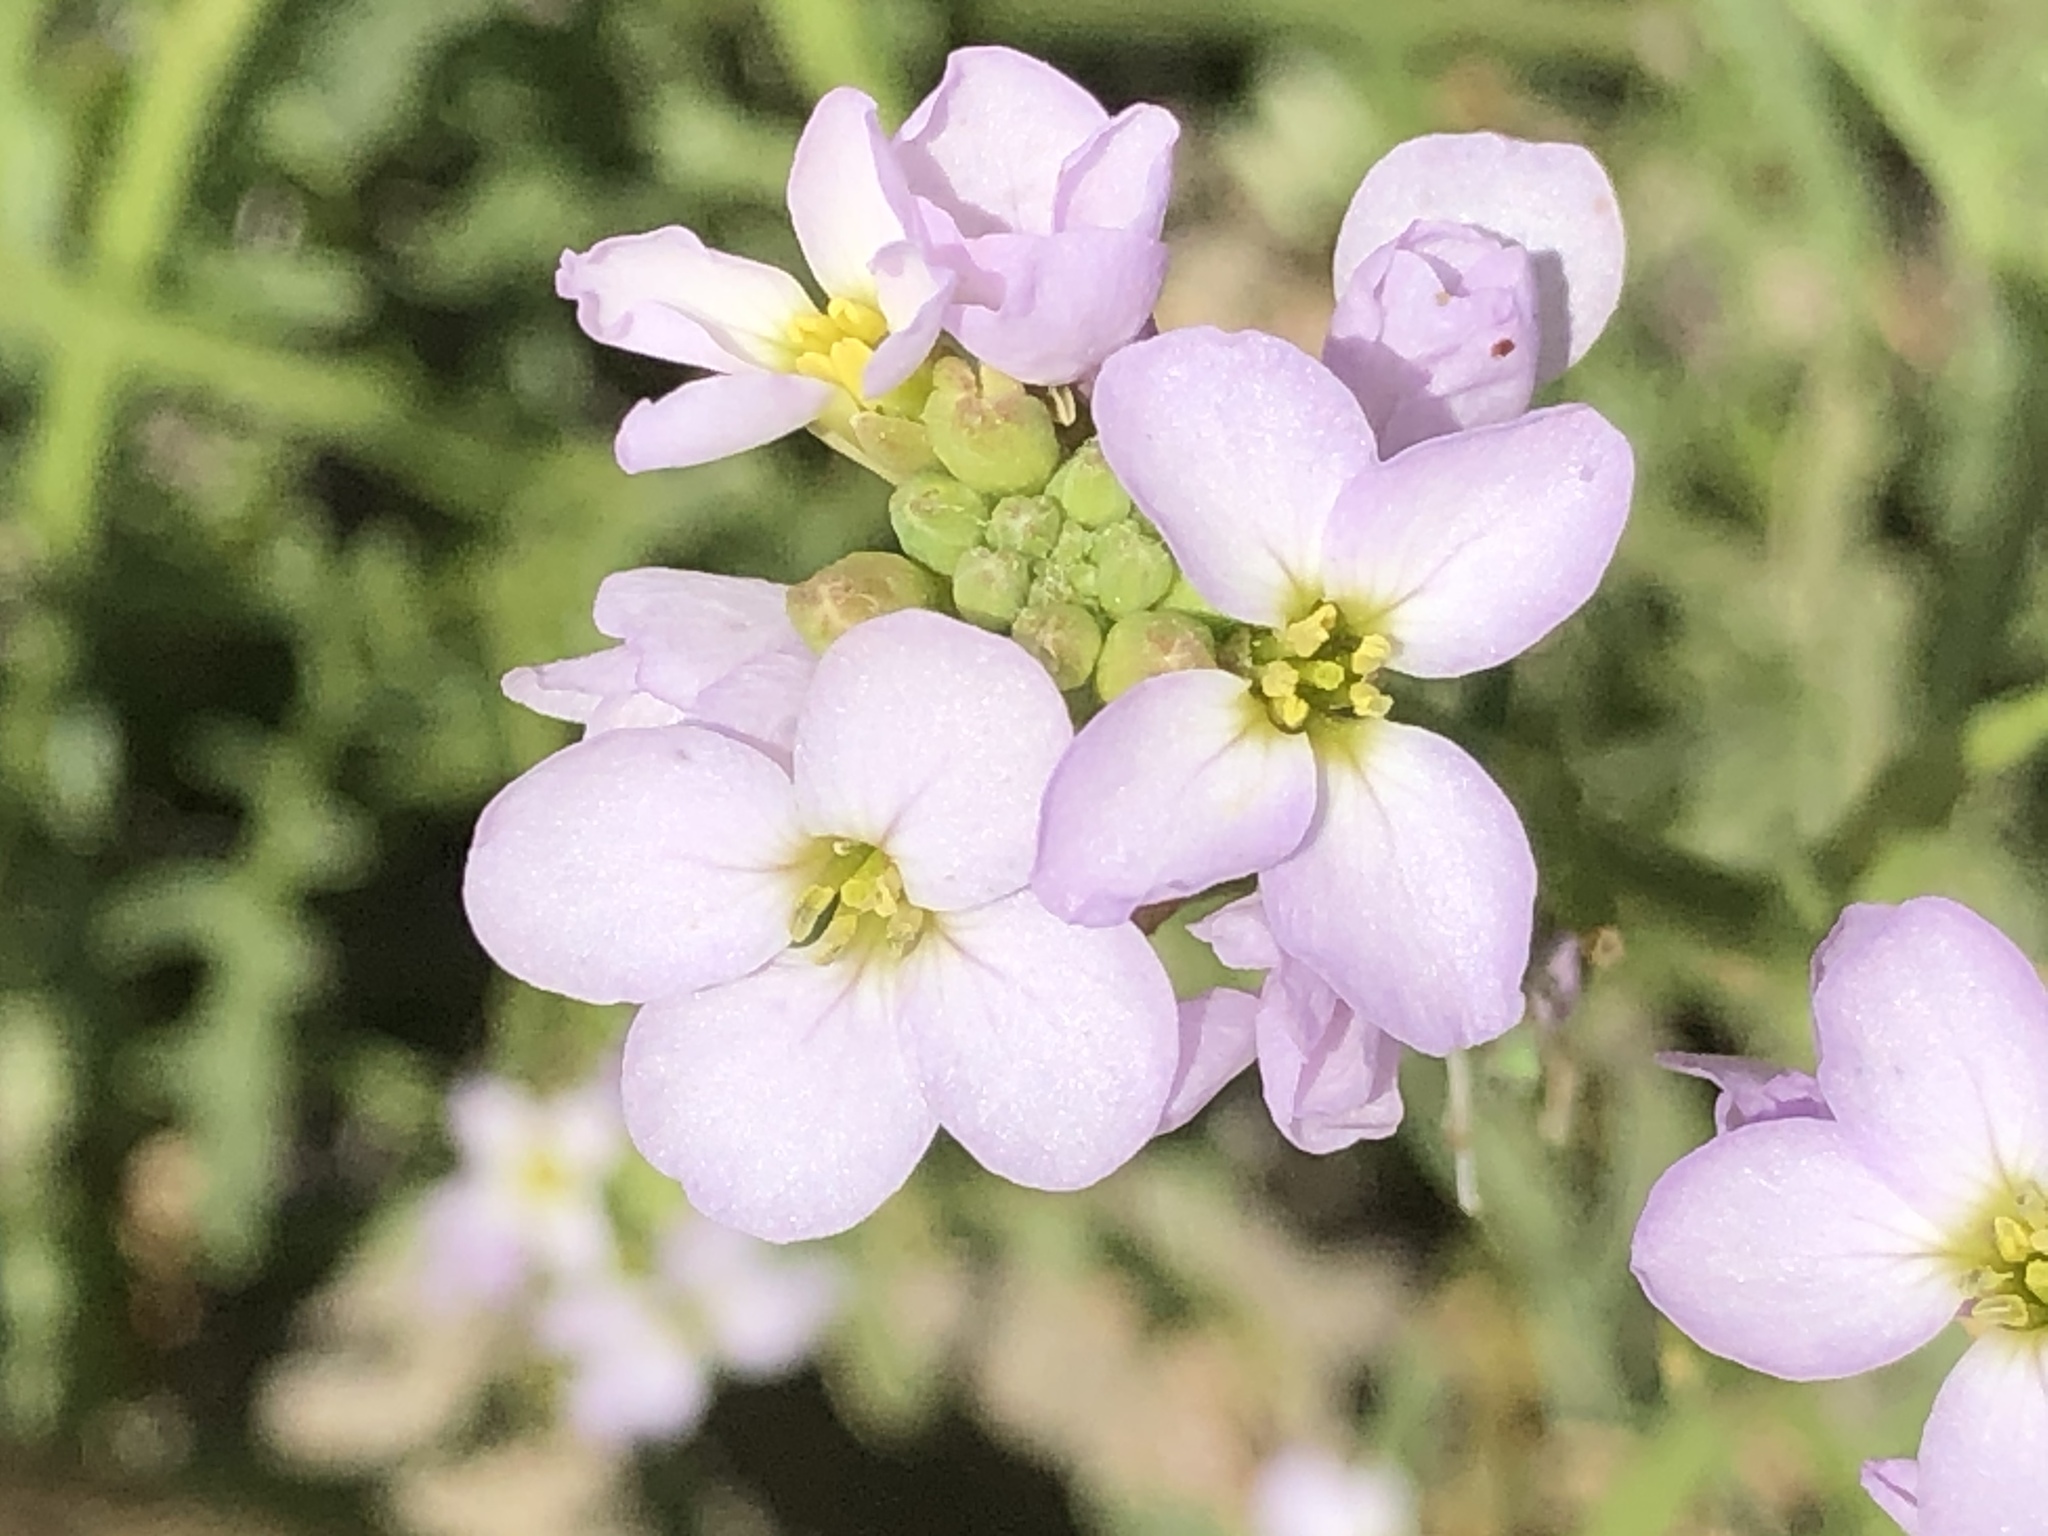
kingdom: Plantae
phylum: Tracheophyta
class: Magnoliopsida
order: Brassicales
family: Brassicaceae
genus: Cakile
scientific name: Cakile maritima
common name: Sea rocket
